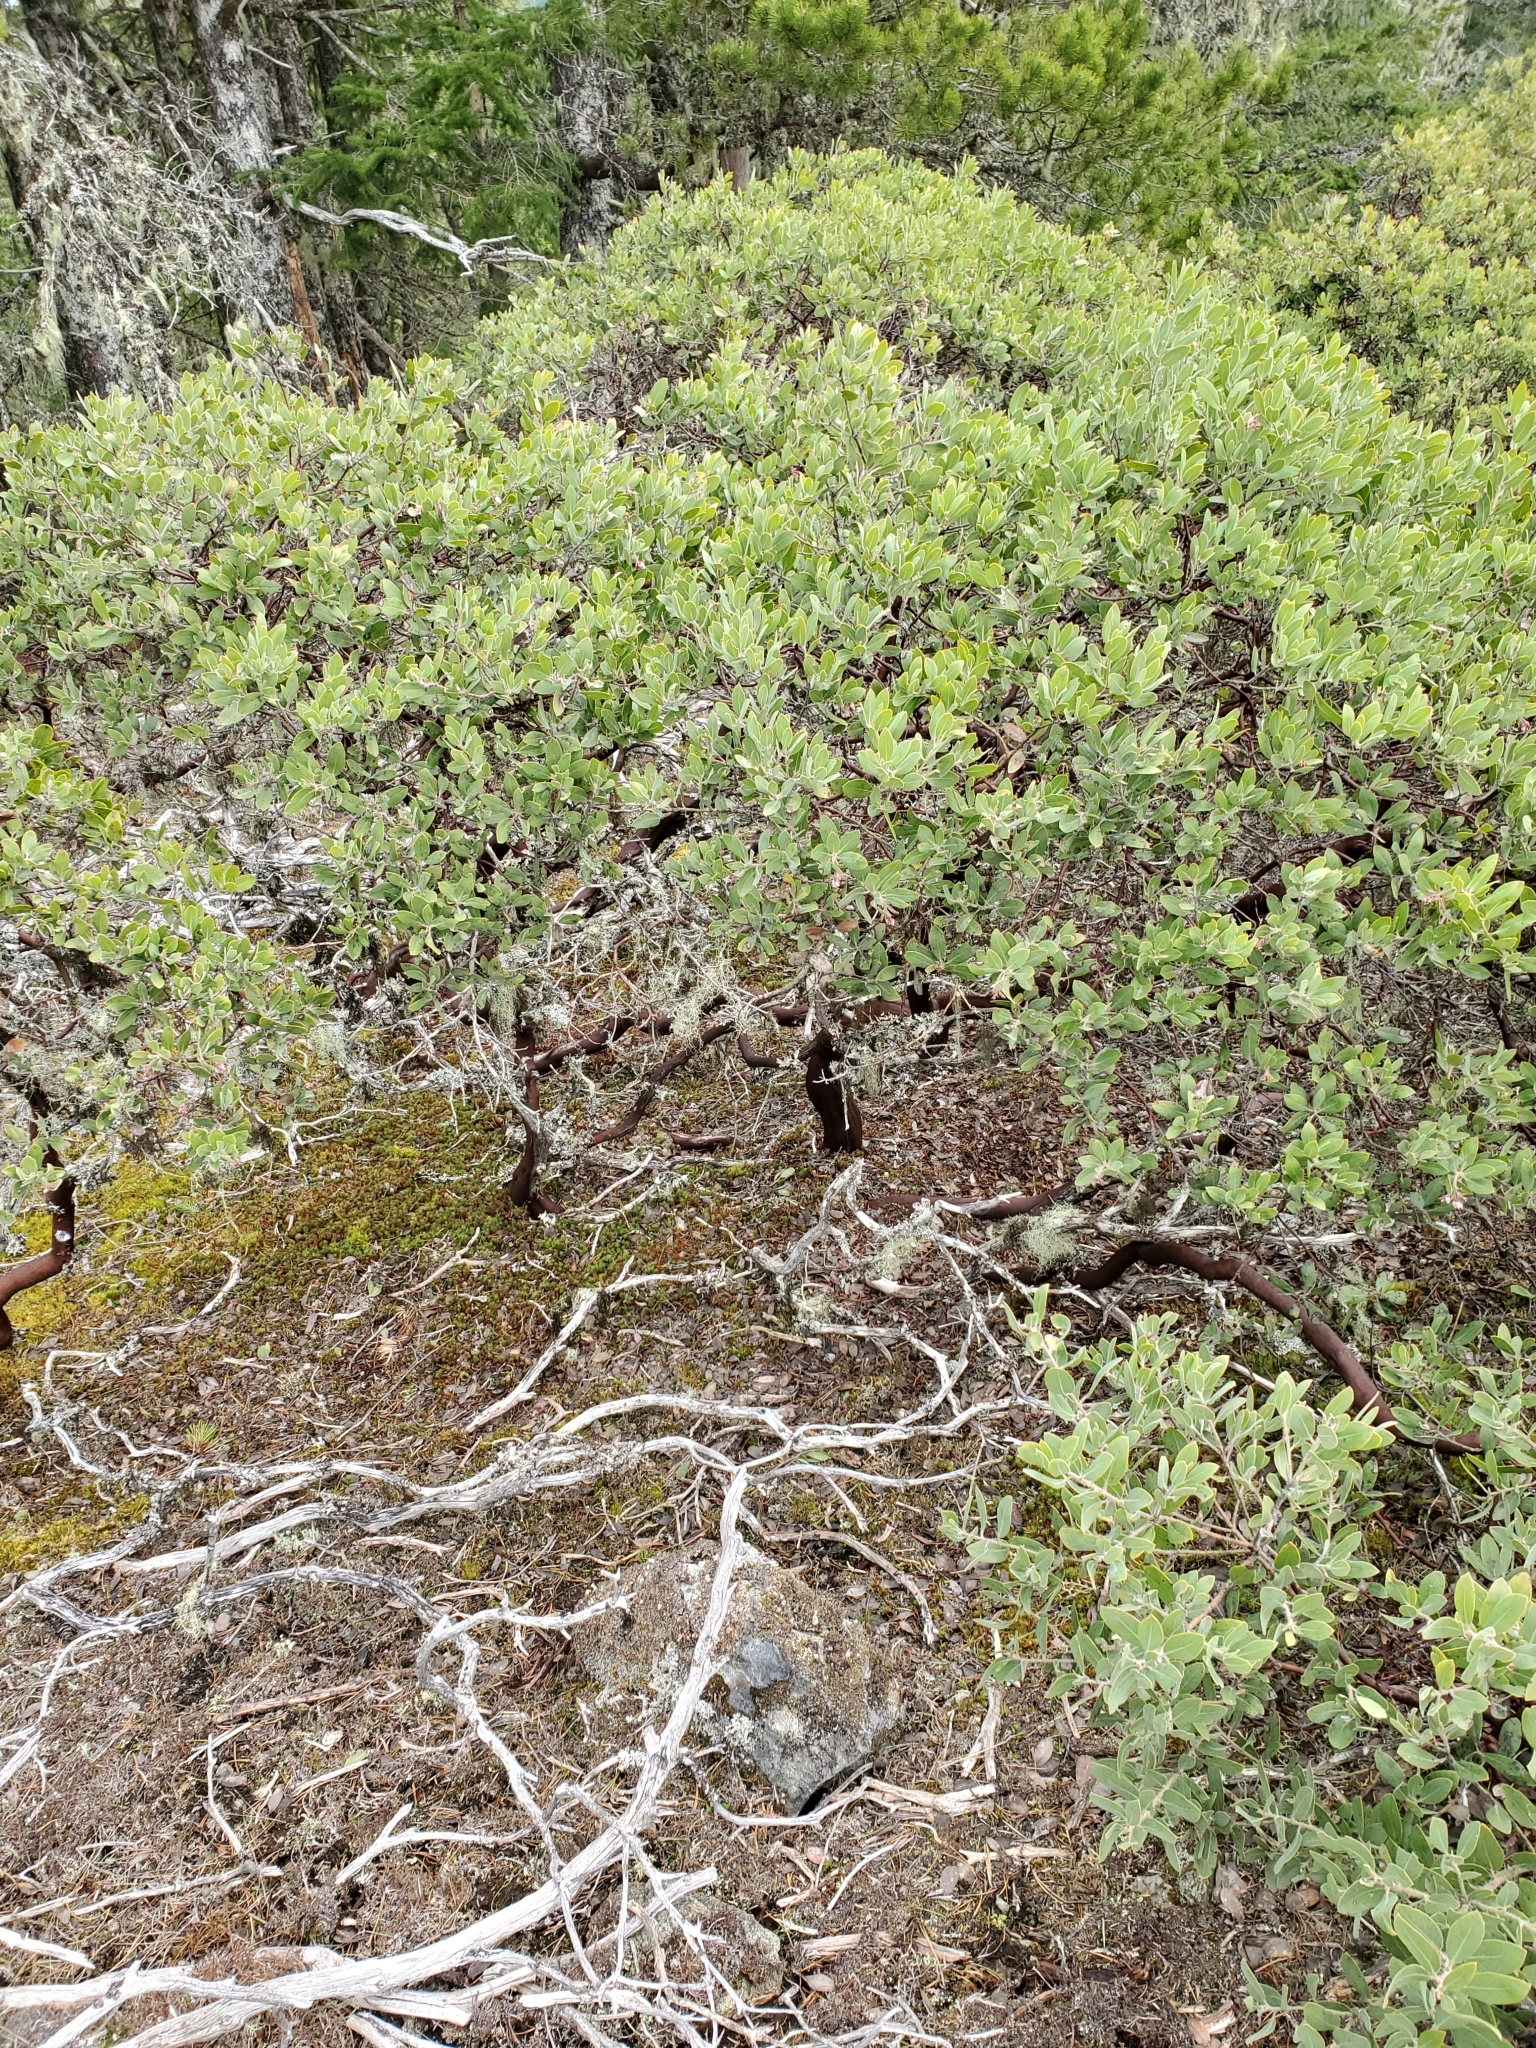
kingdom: Plantae
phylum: Tracheophyta
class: Magnoliopsida
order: Ericales
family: Ericaceae
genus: Arctostaphylos
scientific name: Arctostaphylos columbiana
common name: Bristly bearberry
